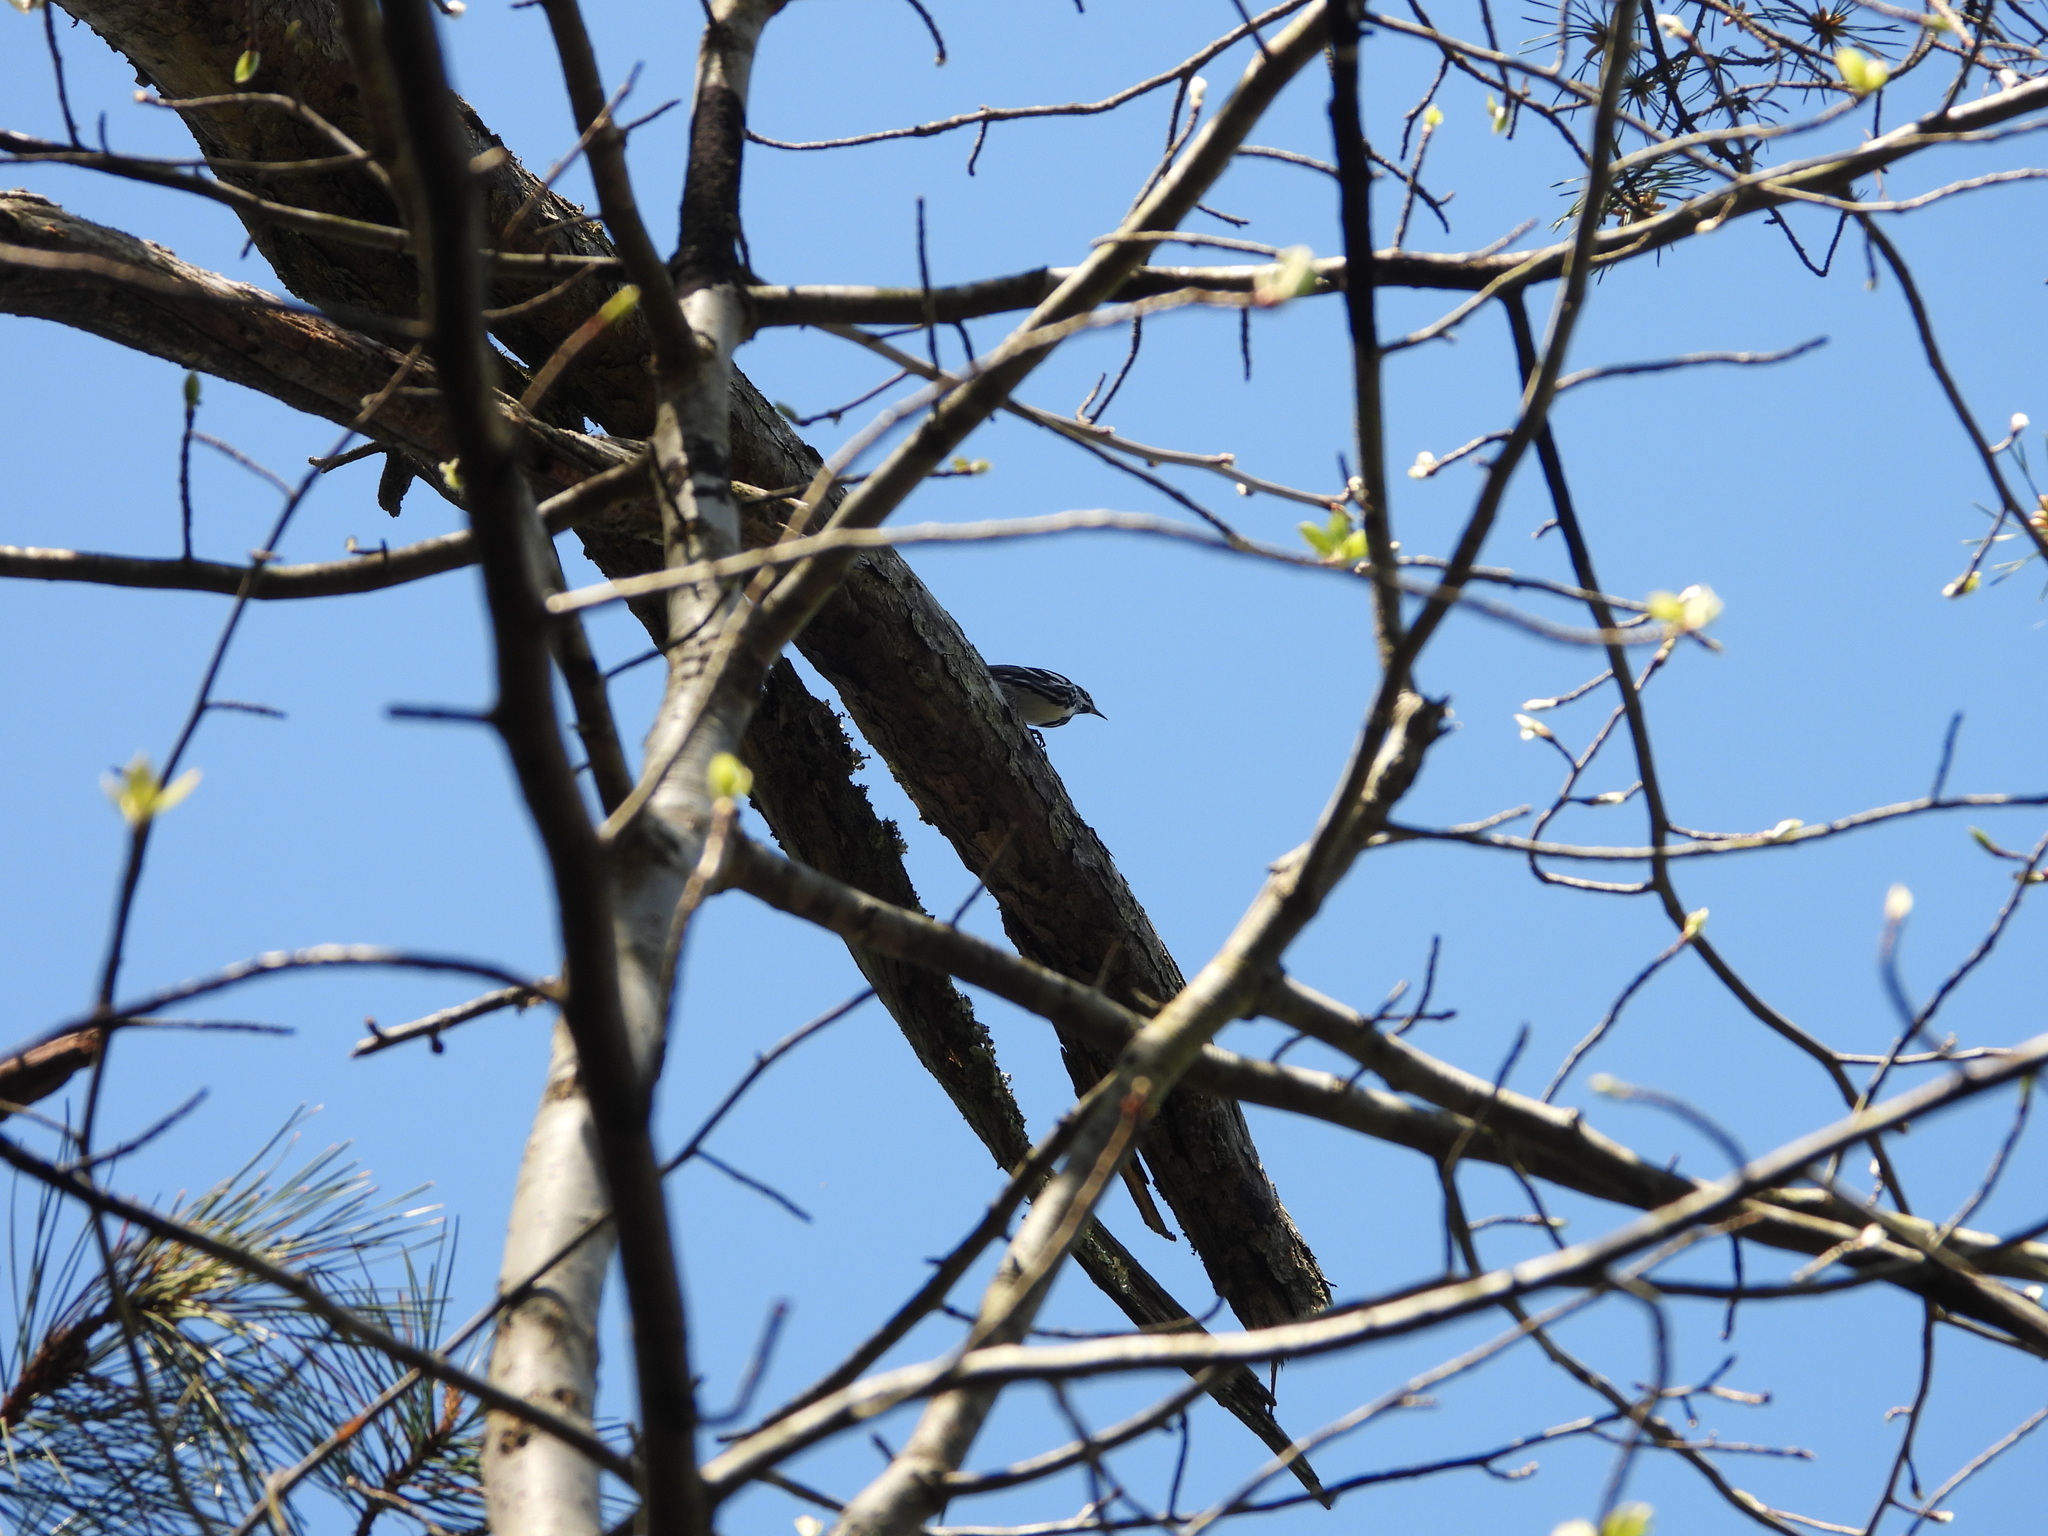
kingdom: Animalia
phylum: Chordata
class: Aves
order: Passeriformes
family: Parulidae
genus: Mniotilta
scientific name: Mniotilta varia
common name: Black-and-white warbler
